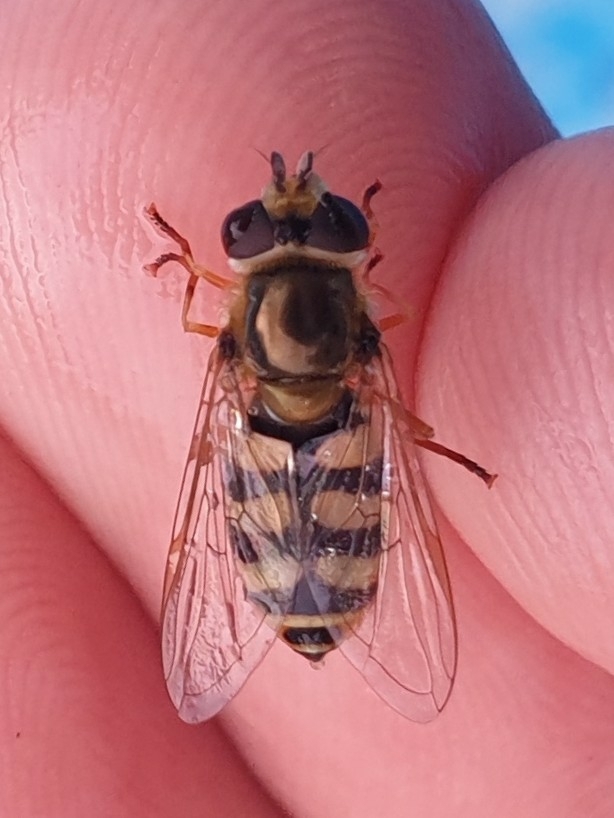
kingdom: Animalia
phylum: Arthropoda
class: Insecta
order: Diptera
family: Syrphidae
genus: Eupeodes
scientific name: Eupeodes corollae
